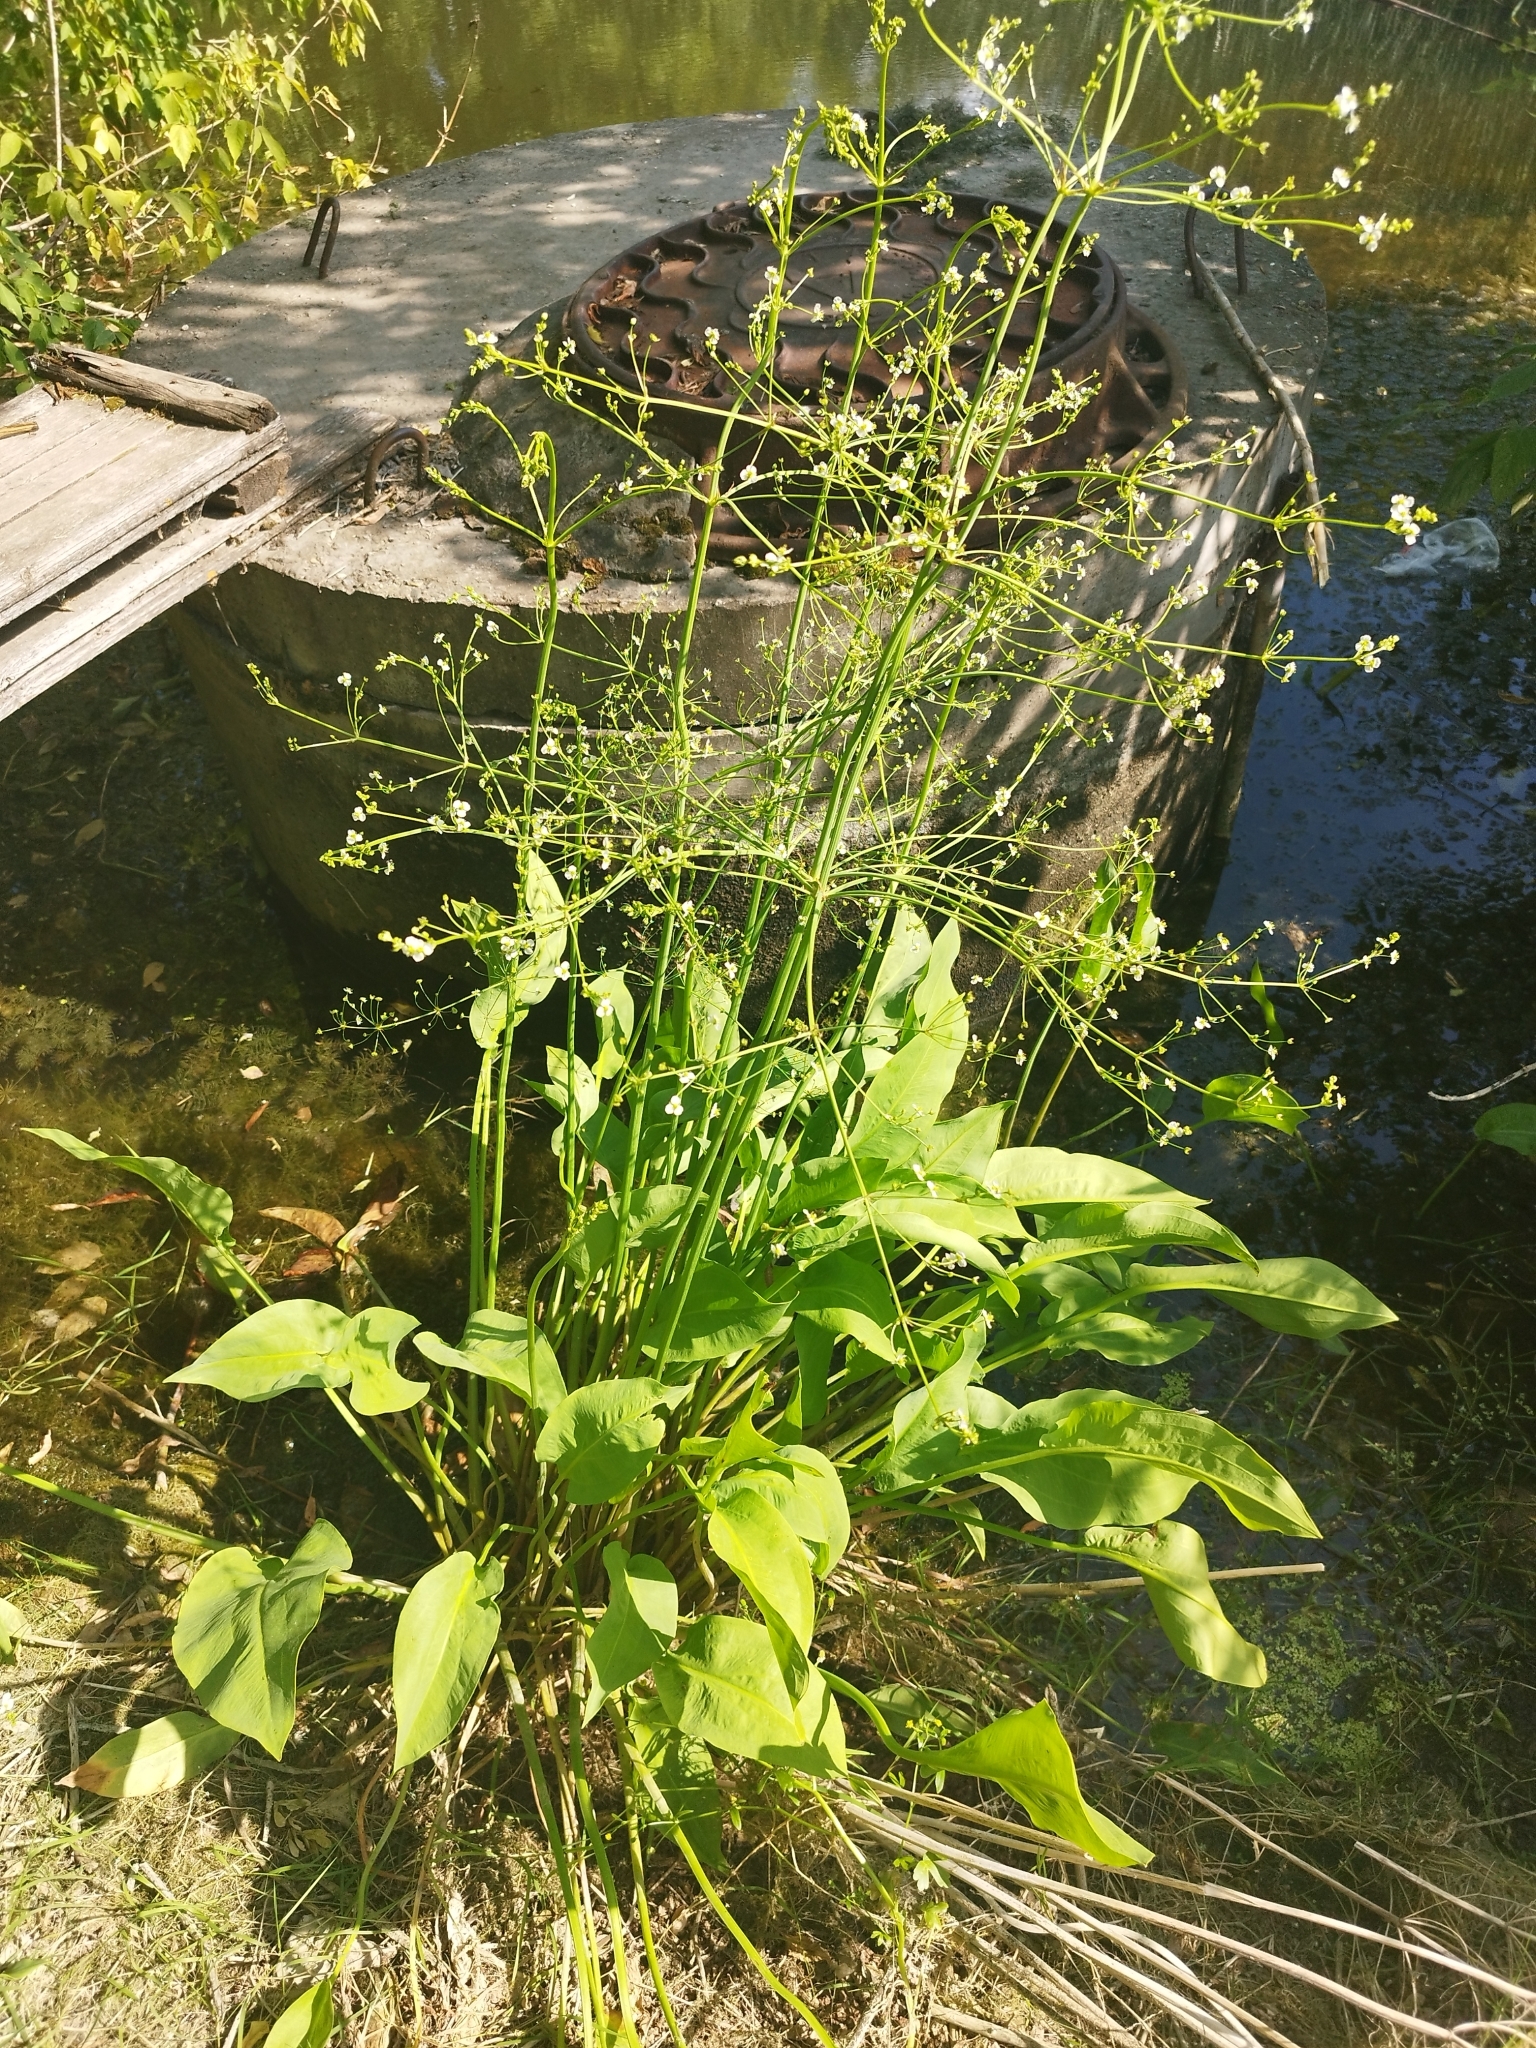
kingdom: Plantae
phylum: Tracheophyta
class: Liliopsida
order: Alismatales
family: Alismataceae
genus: Alisma
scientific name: Alisma plantago-aquatica
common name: Water-plantain
